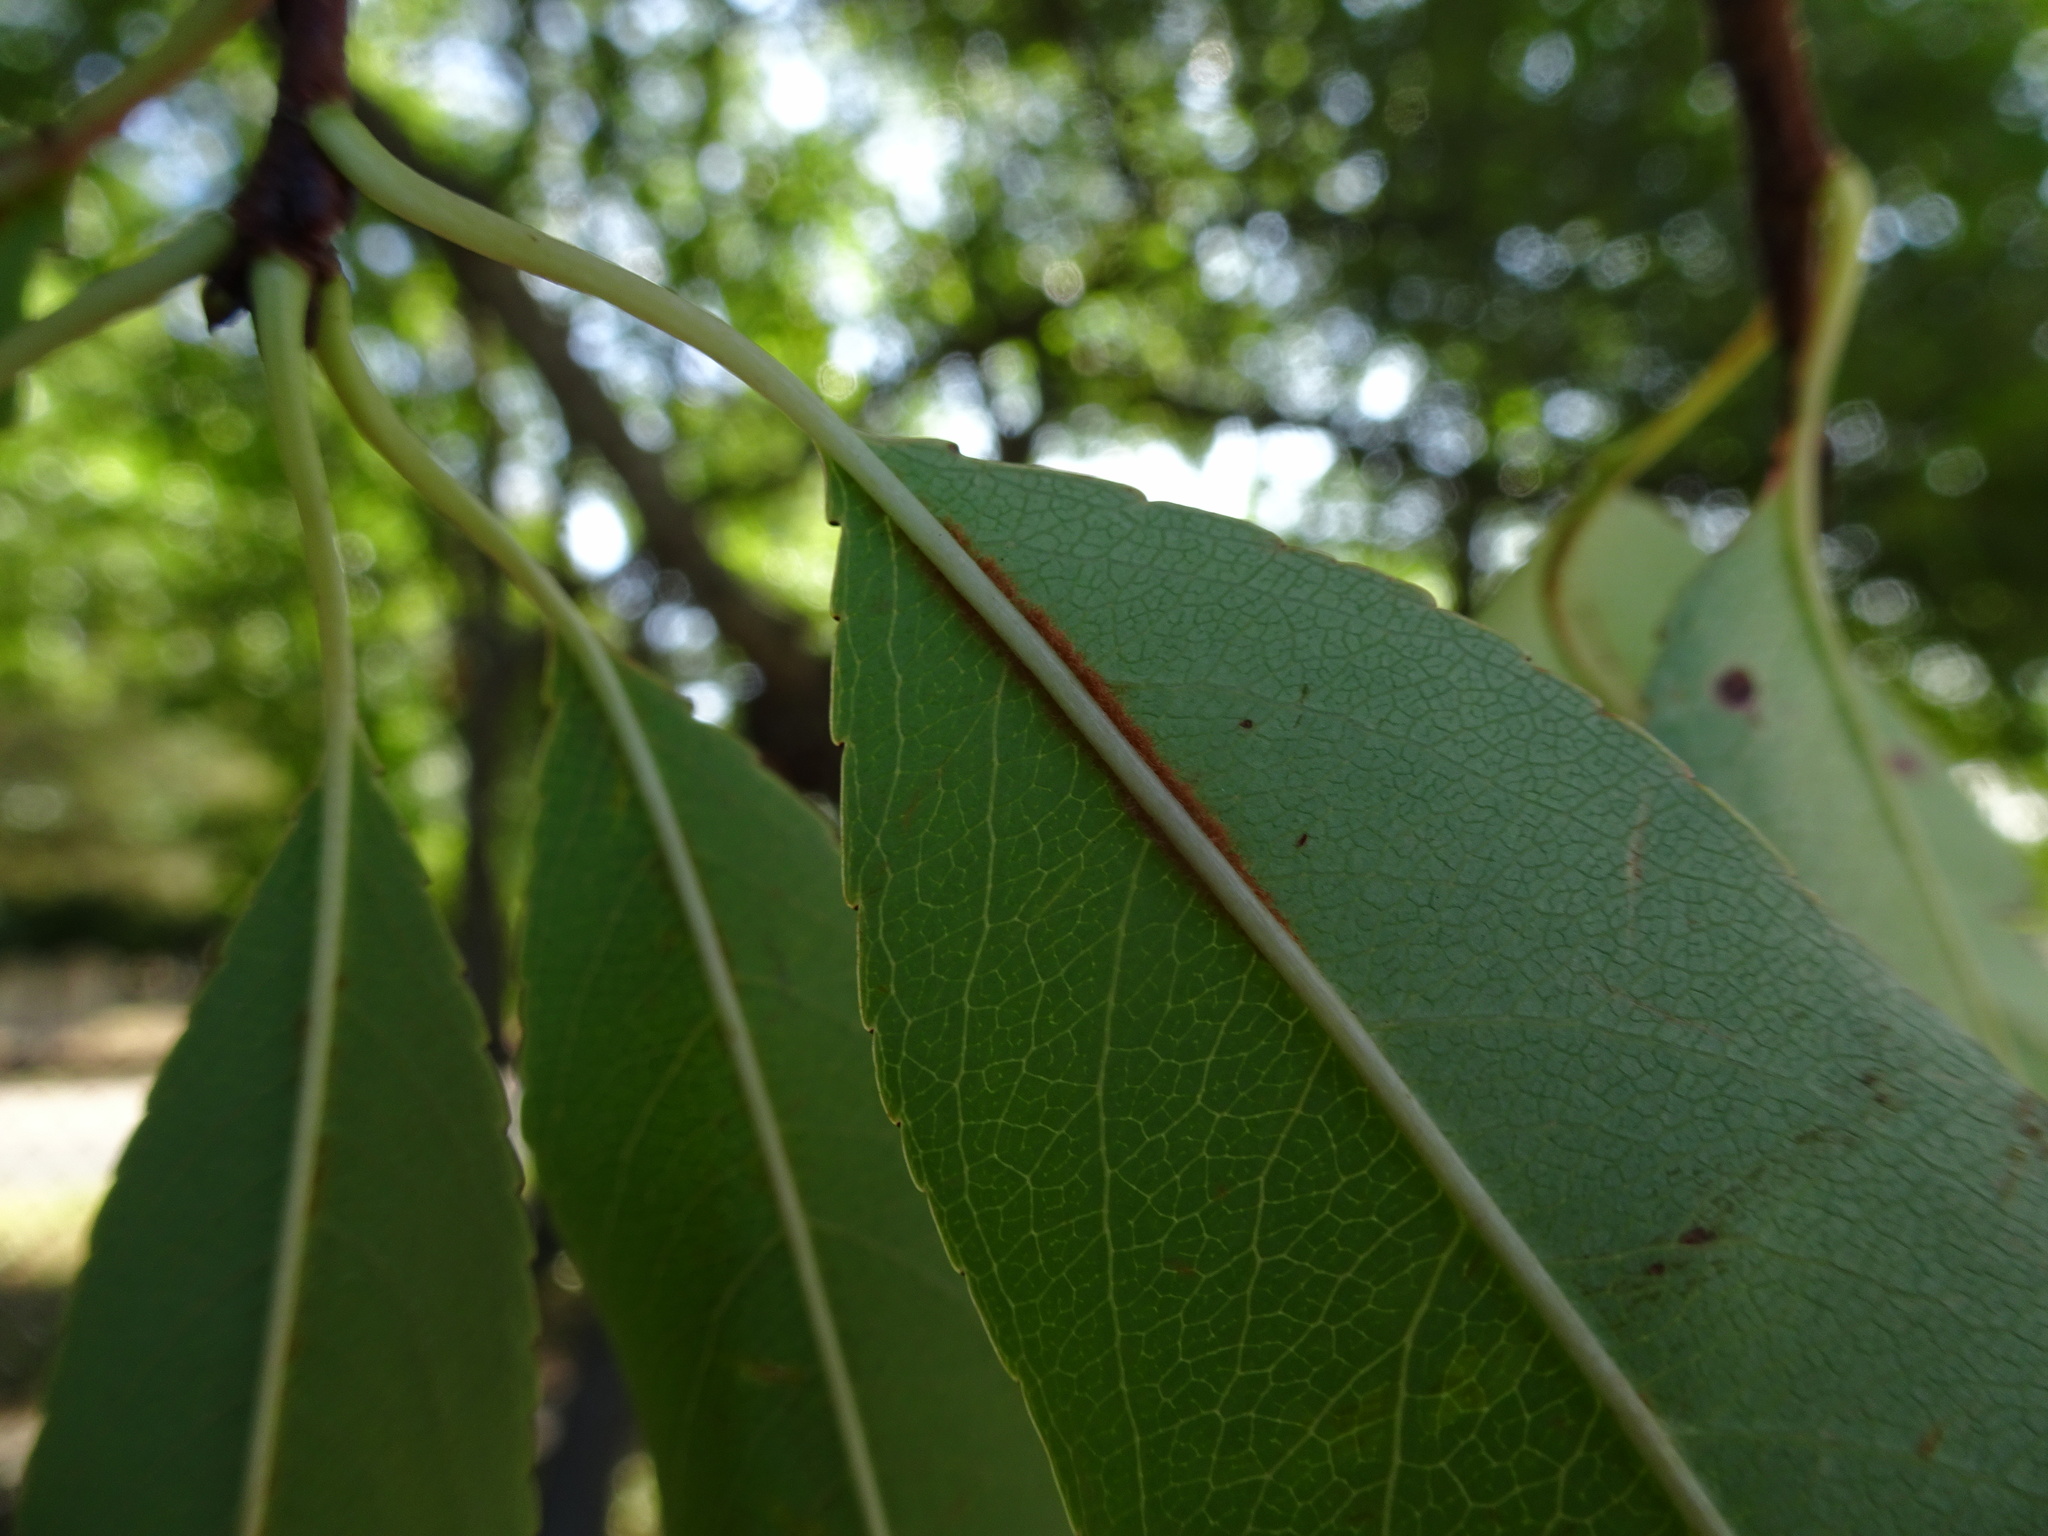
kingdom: Plantae
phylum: Tracheophyta
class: Magnoliopsida
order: Rosales
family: Rosaceae
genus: Prunus
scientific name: Prunus serotina
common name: Black cherry
